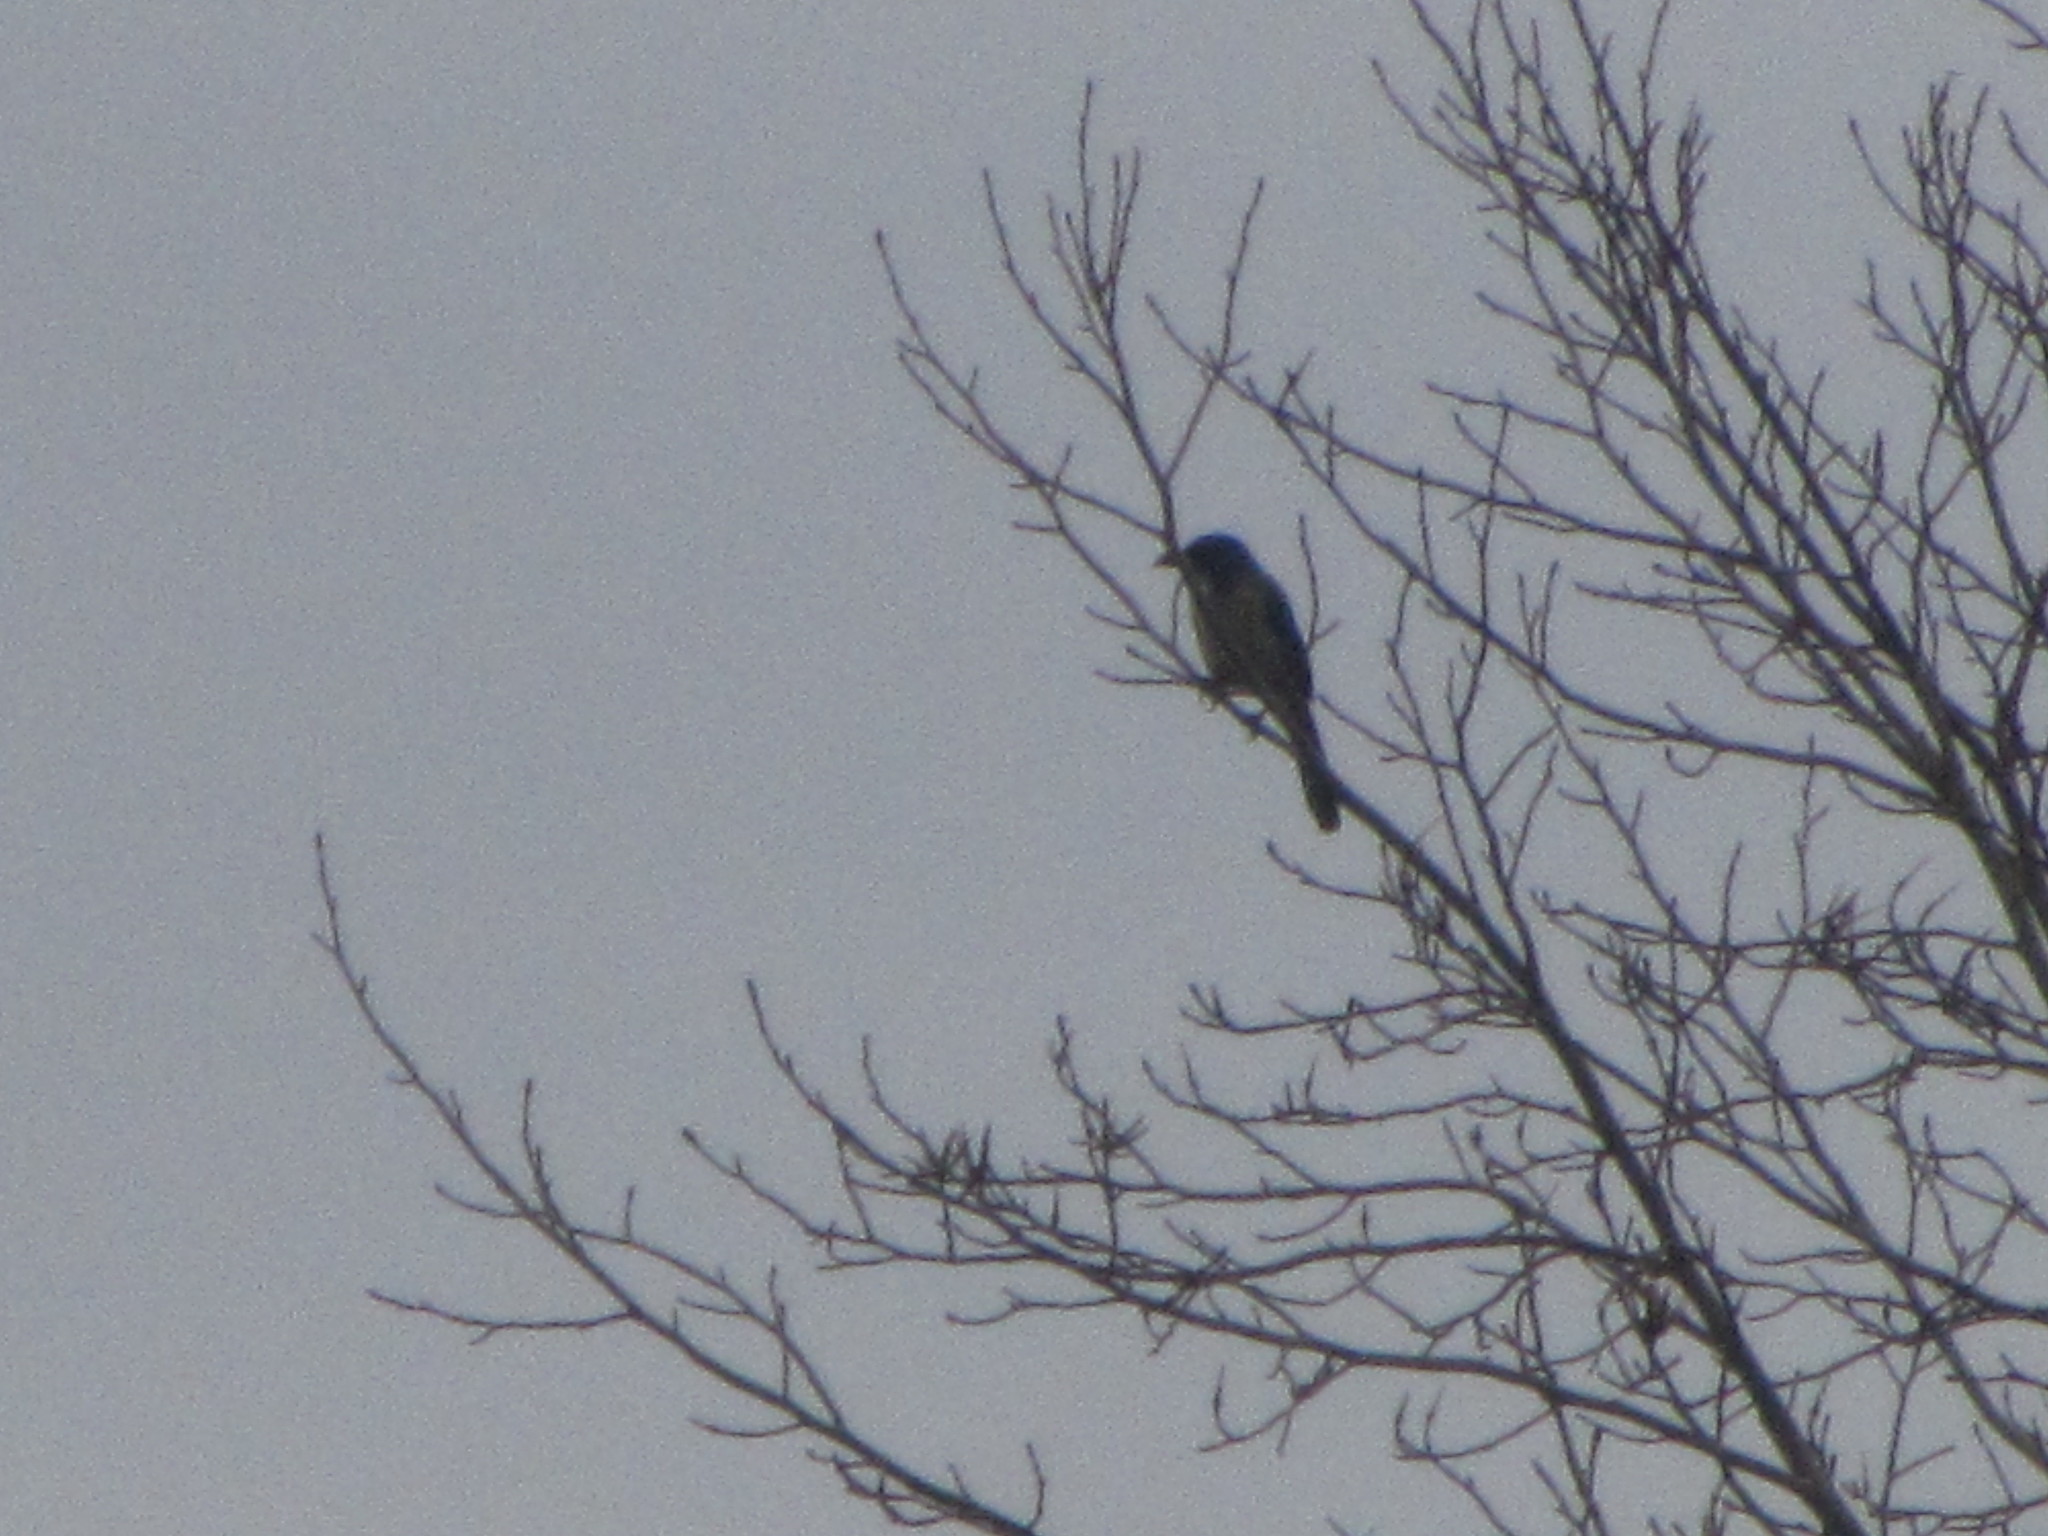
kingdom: Animalia
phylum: Chordata
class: Aves
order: Passeriformes
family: Corvidae
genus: Aphelocoma
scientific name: Aphelocoma californica
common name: California scrub-jay
